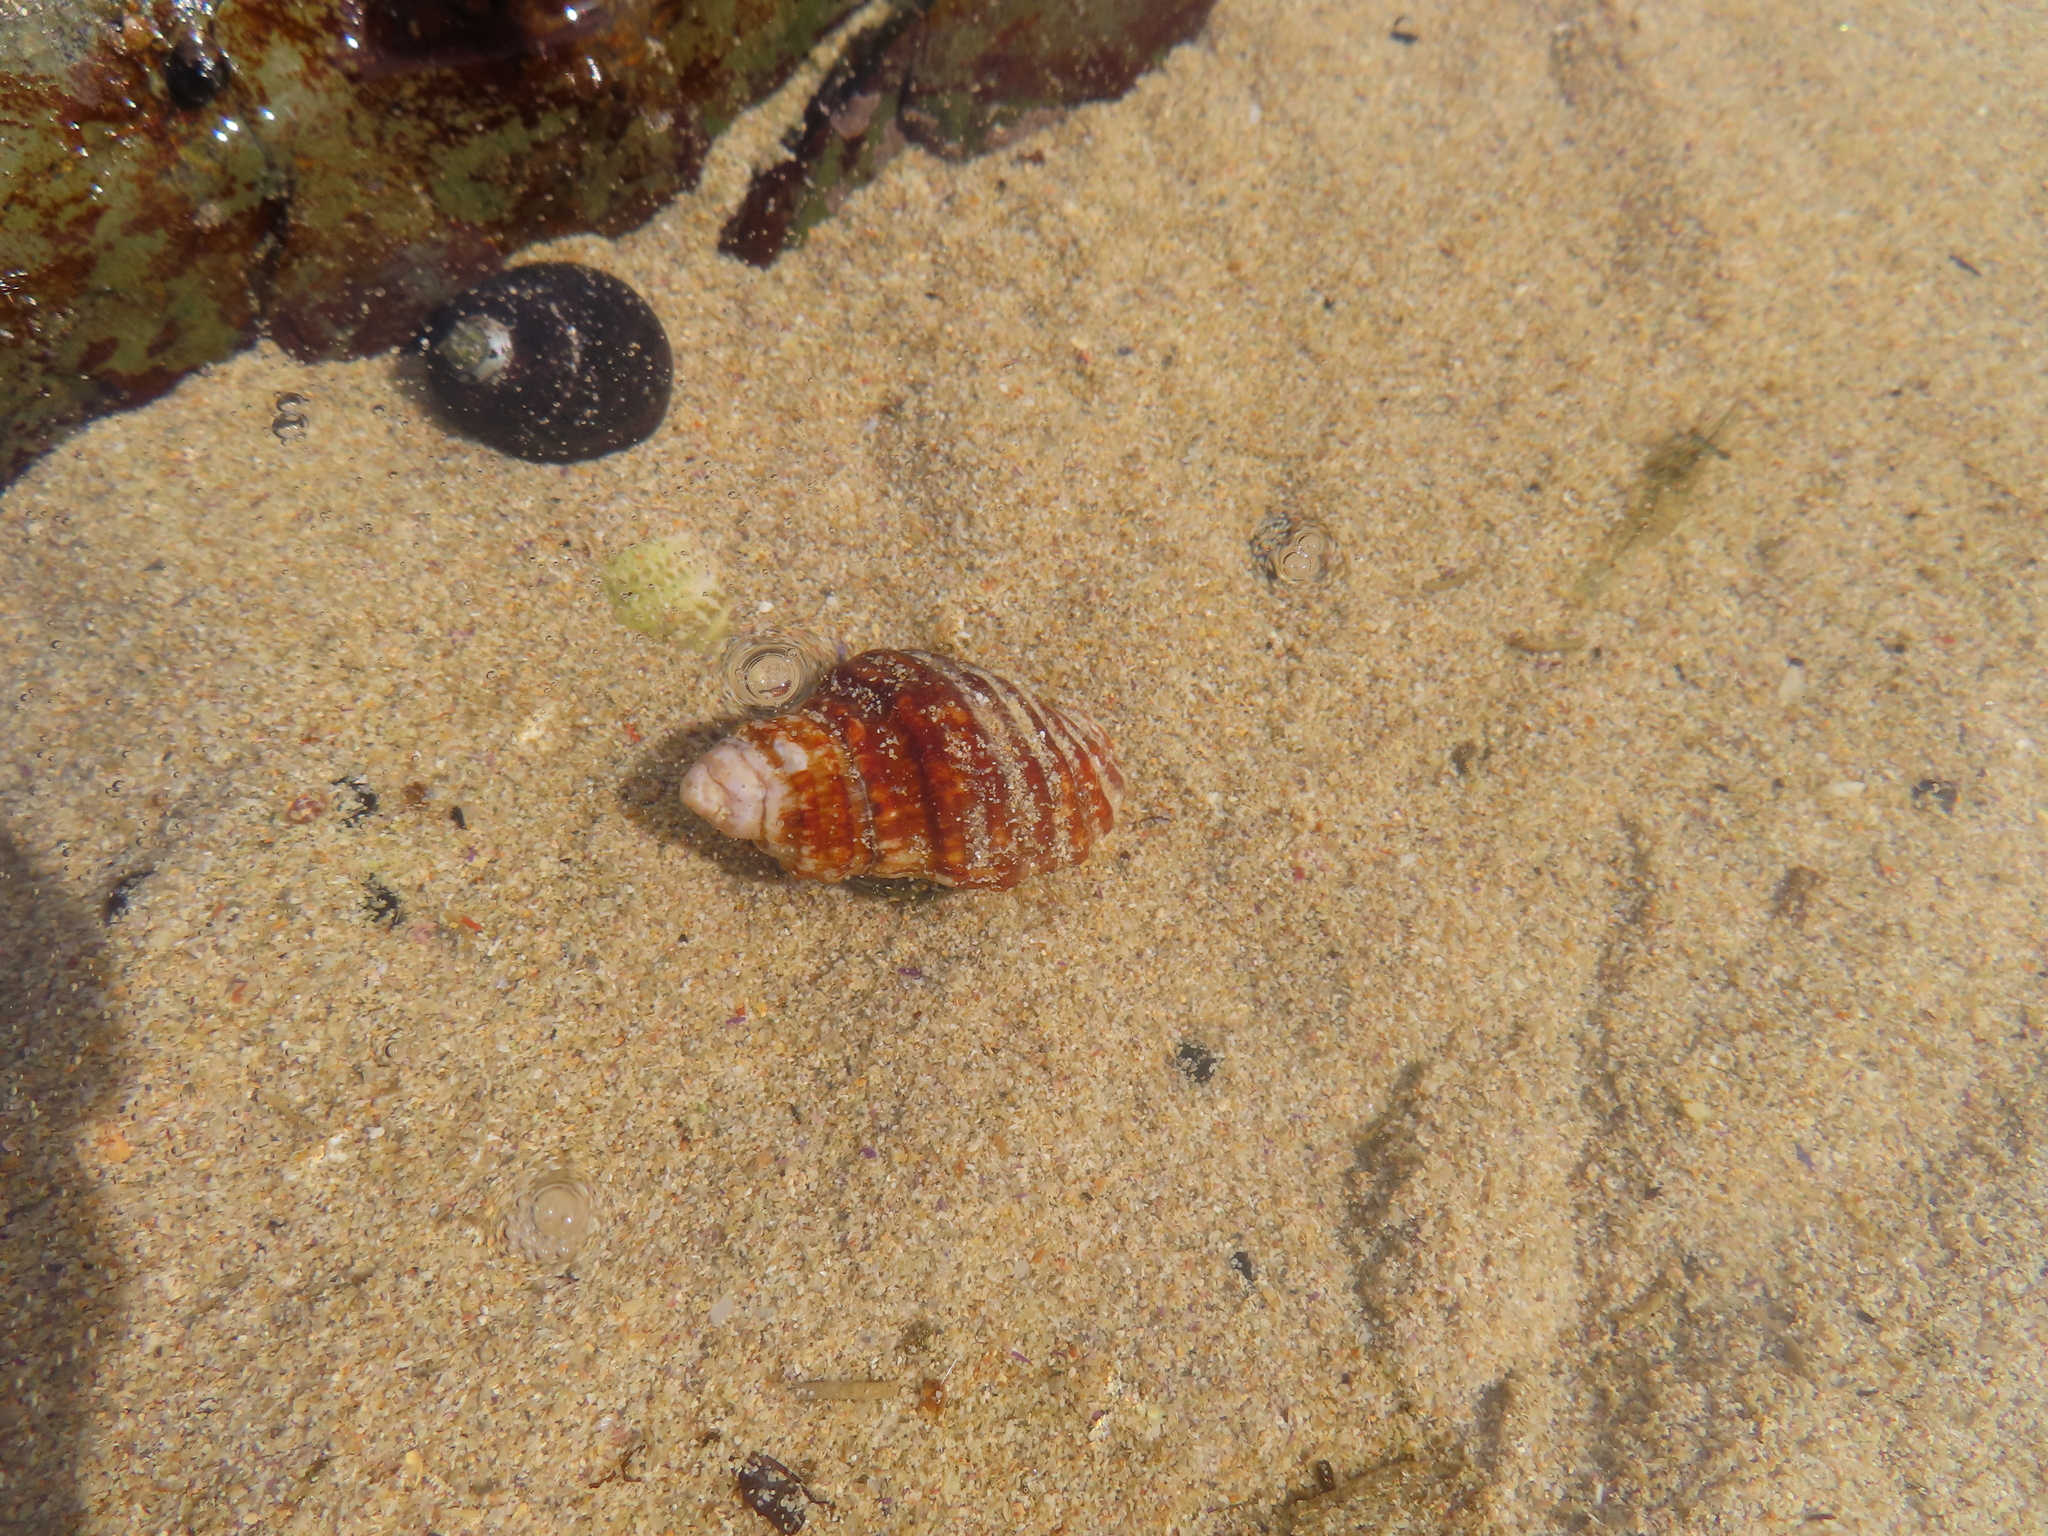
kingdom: Animalia
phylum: Mollusca
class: Gastropoda
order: Neogastropoda
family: Buccinidae
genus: Burnupena
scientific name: Burnupena cincta
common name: Ridged burnupena
